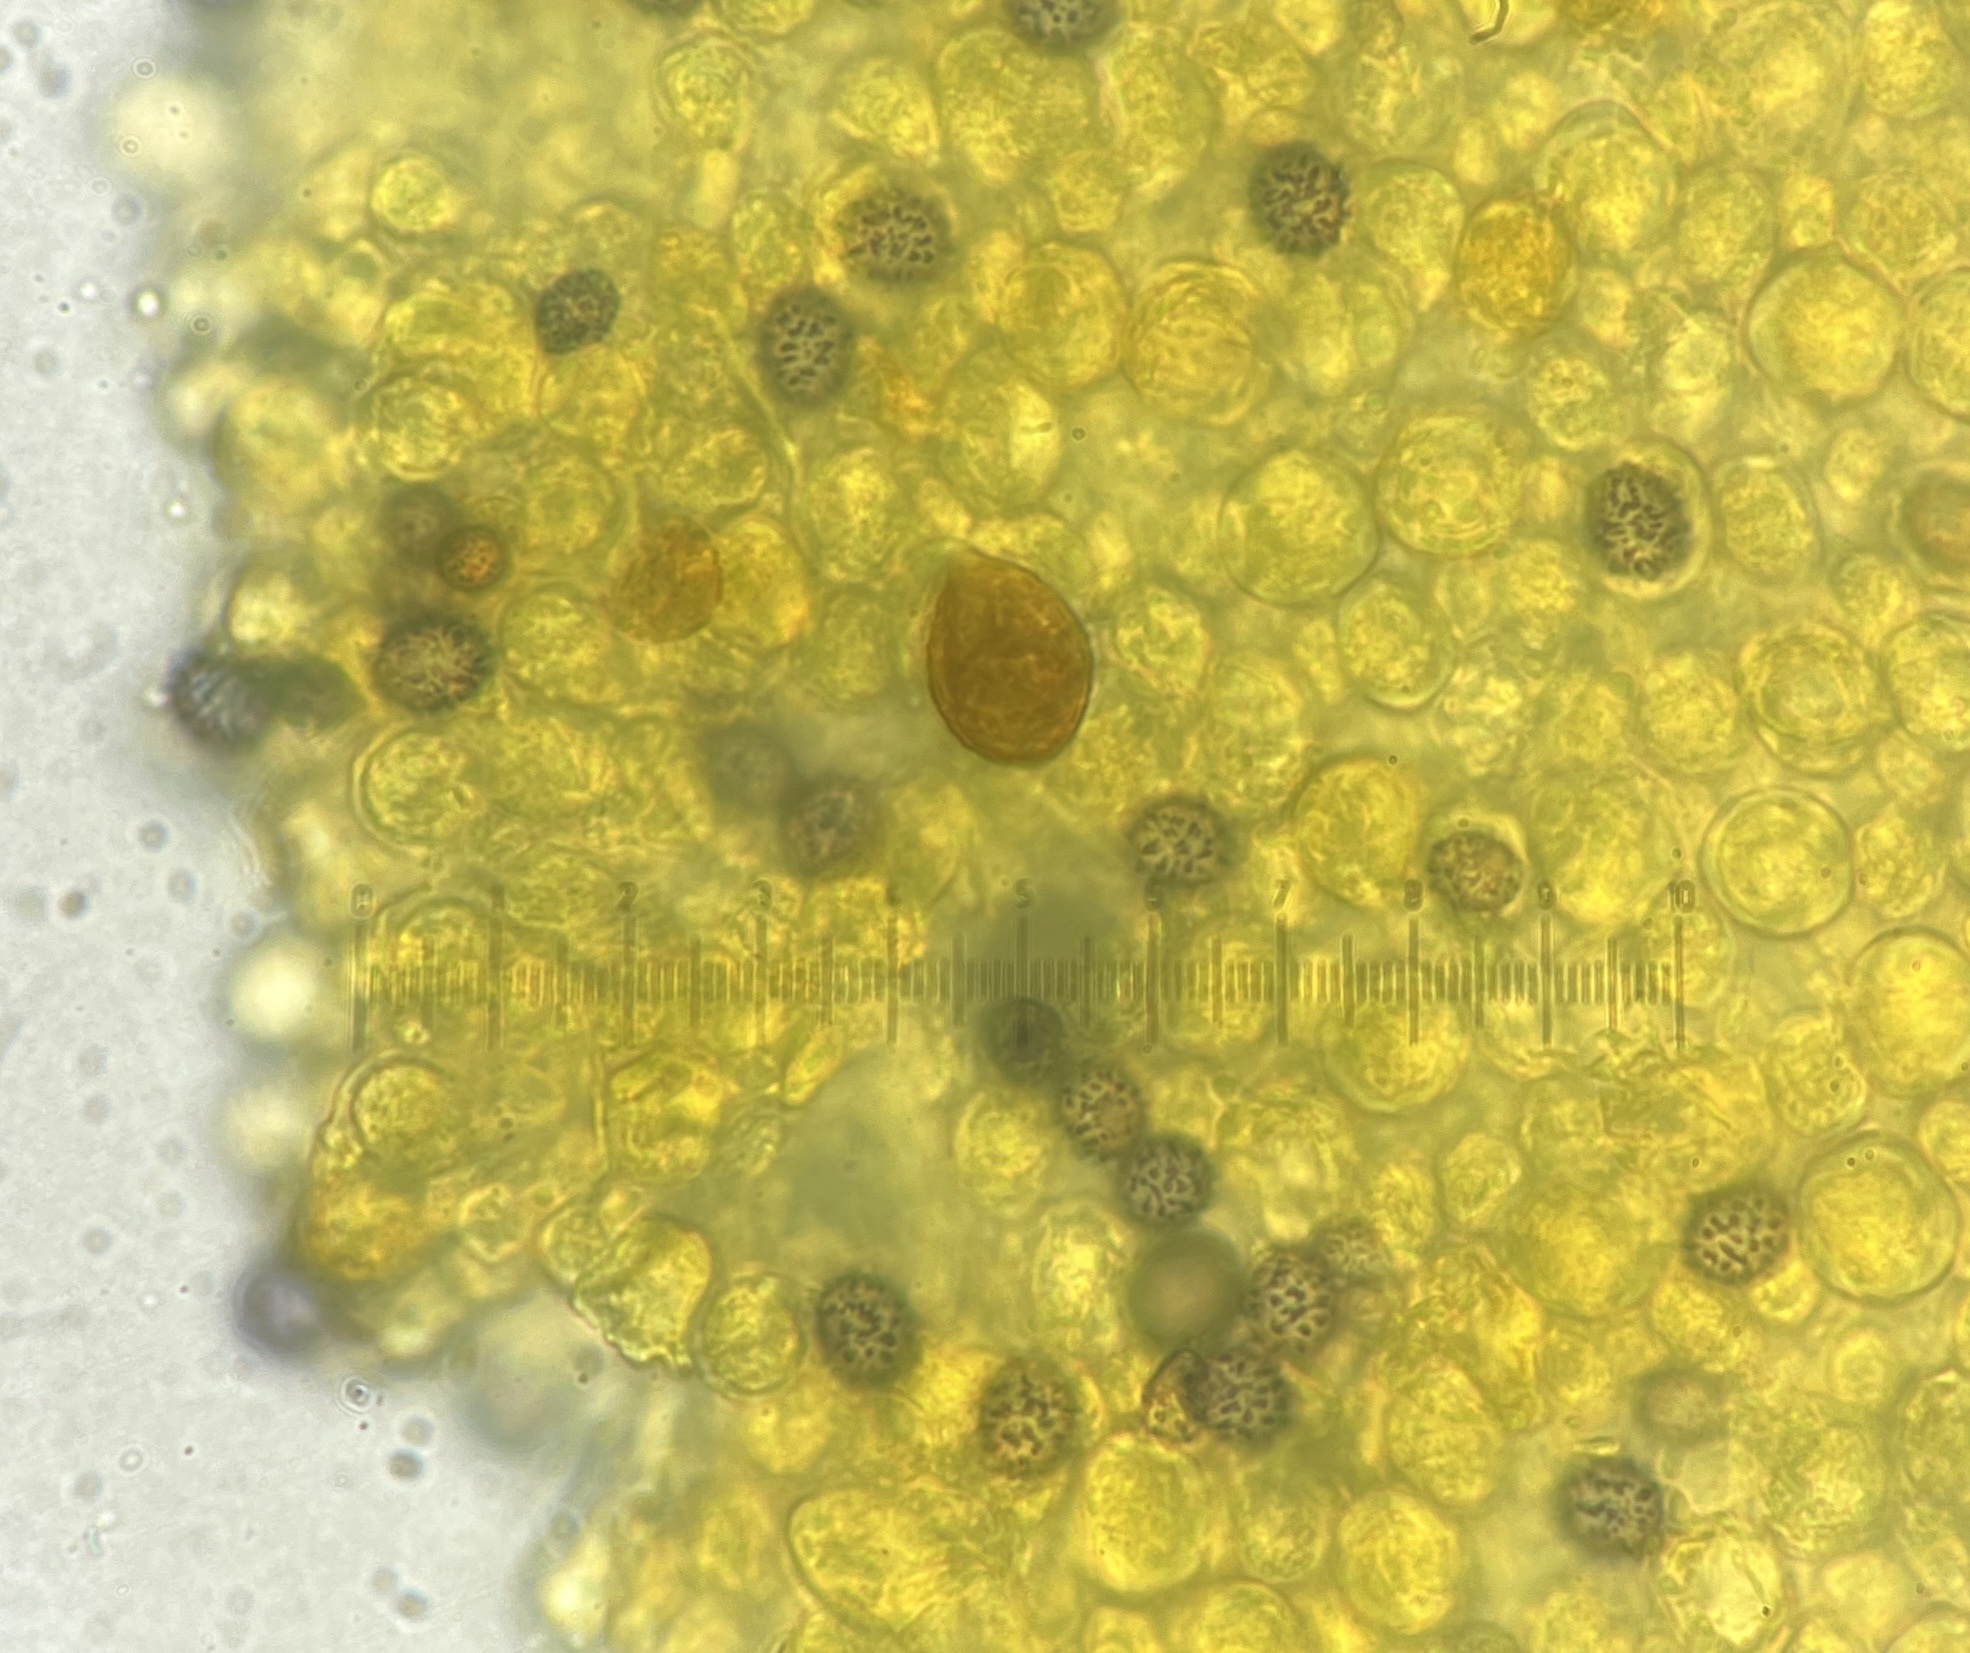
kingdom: Fungi
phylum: Basidiomycota
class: Agaricomycetes
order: Russulales
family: Russulaceae
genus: Russula
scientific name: Russula cremeirosea
